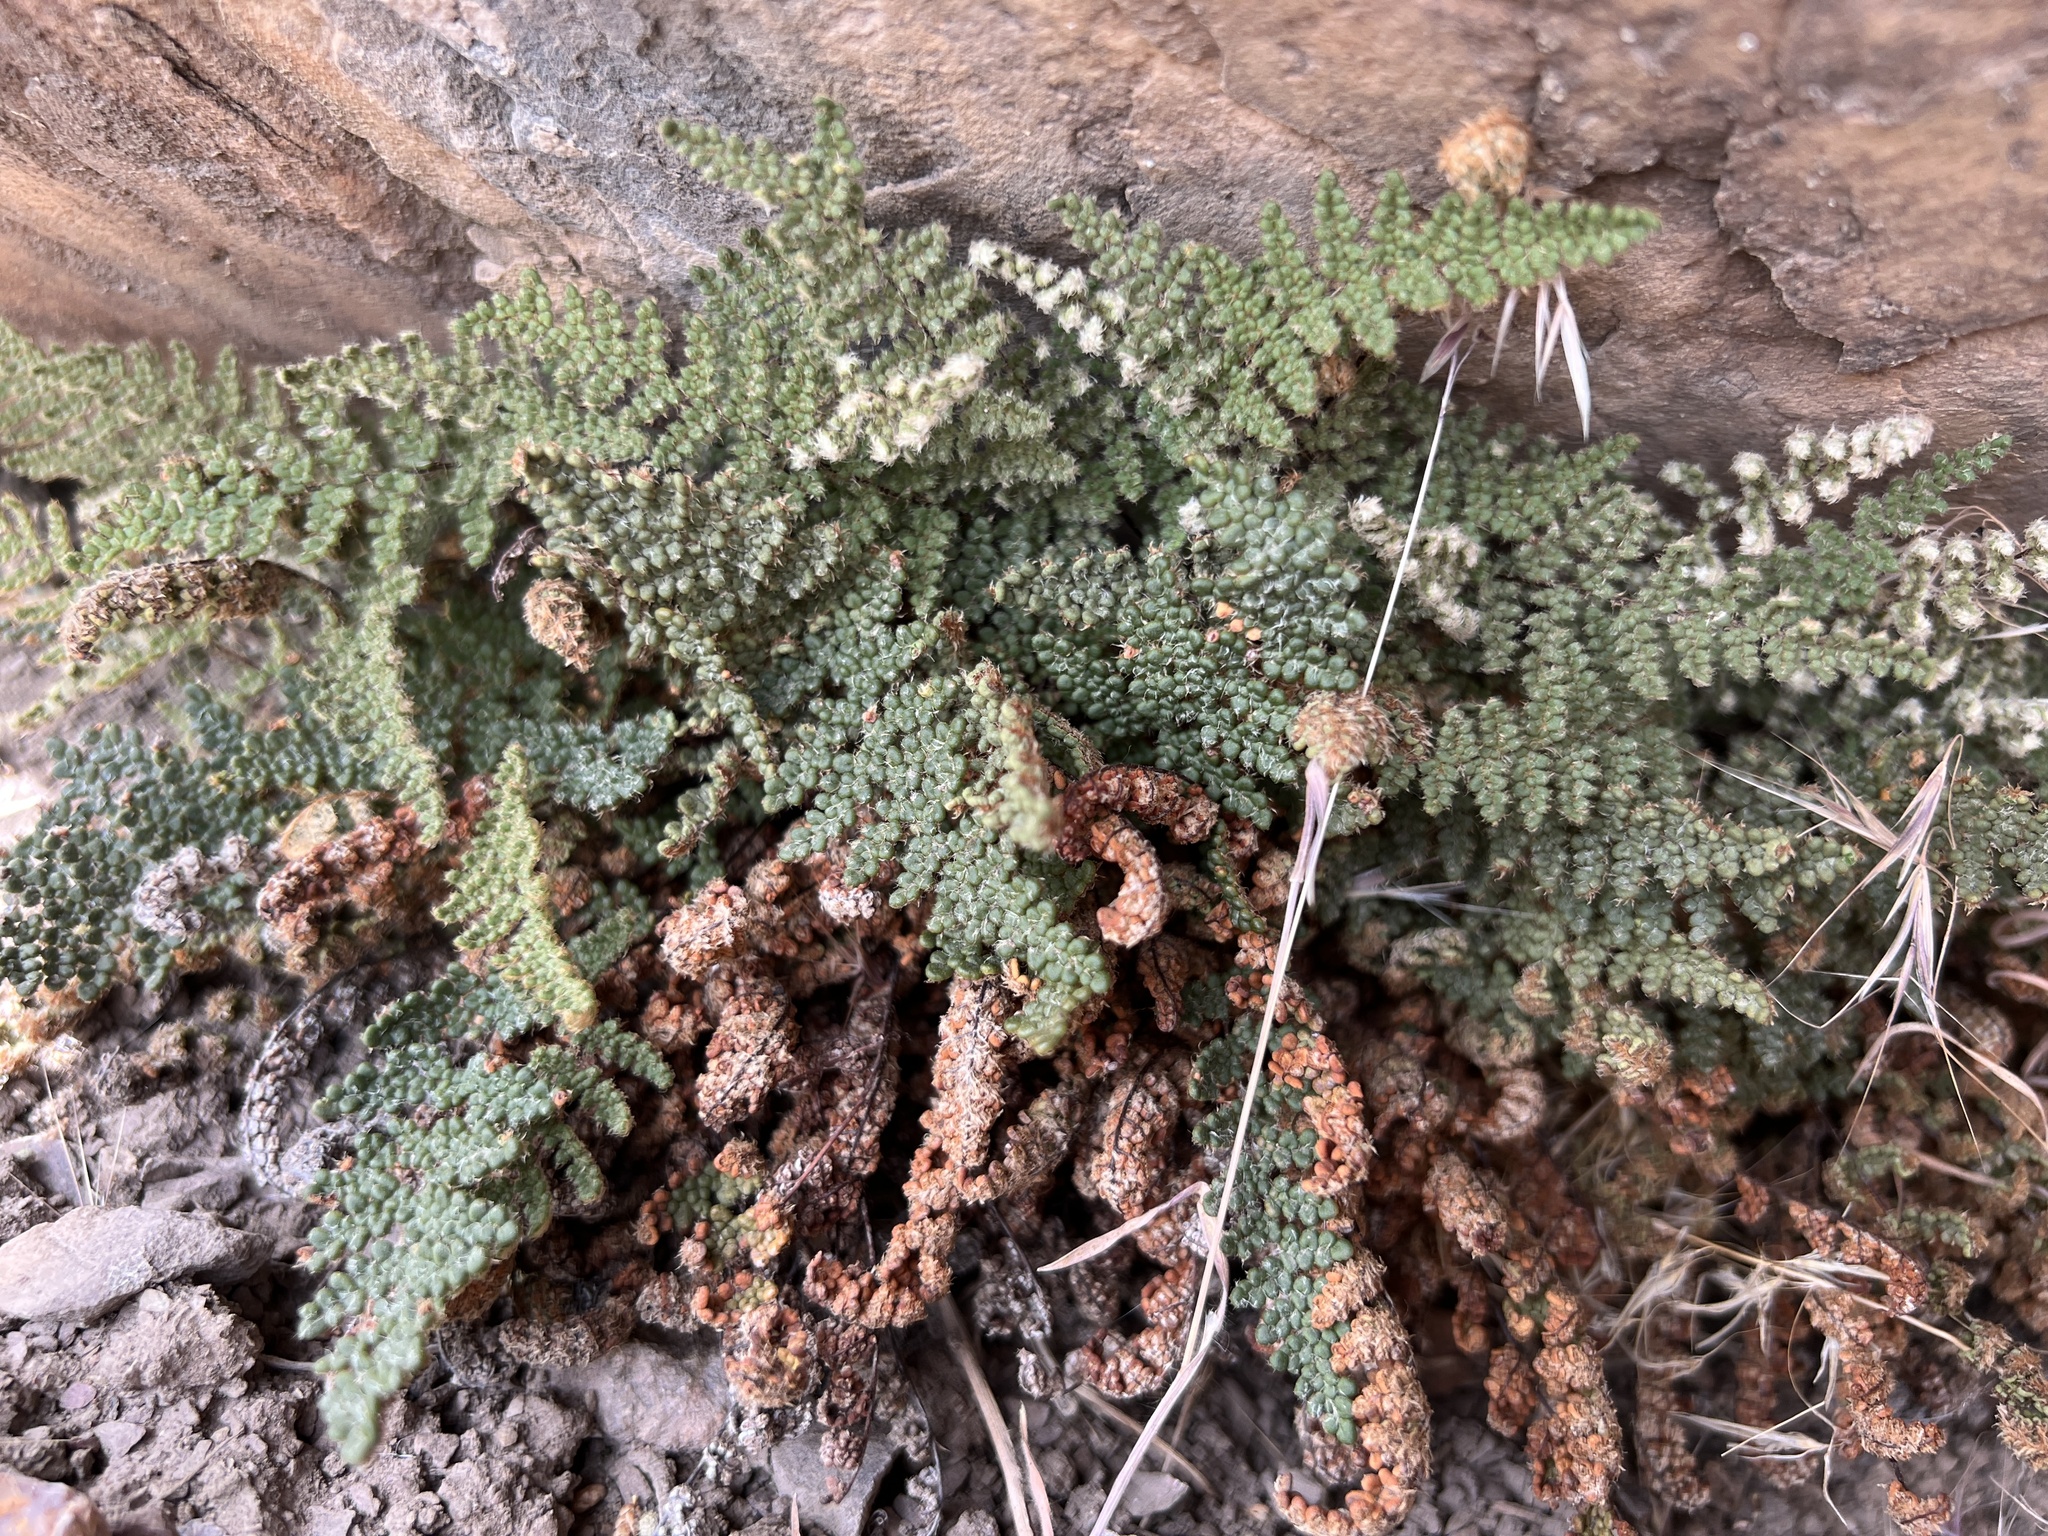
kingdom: Plantae
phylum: Tracheophyta
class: Polypodiopsida
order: Polypodiales
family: Pteridaceae
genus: Myriopteris
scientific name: Myriopteris intertexta
